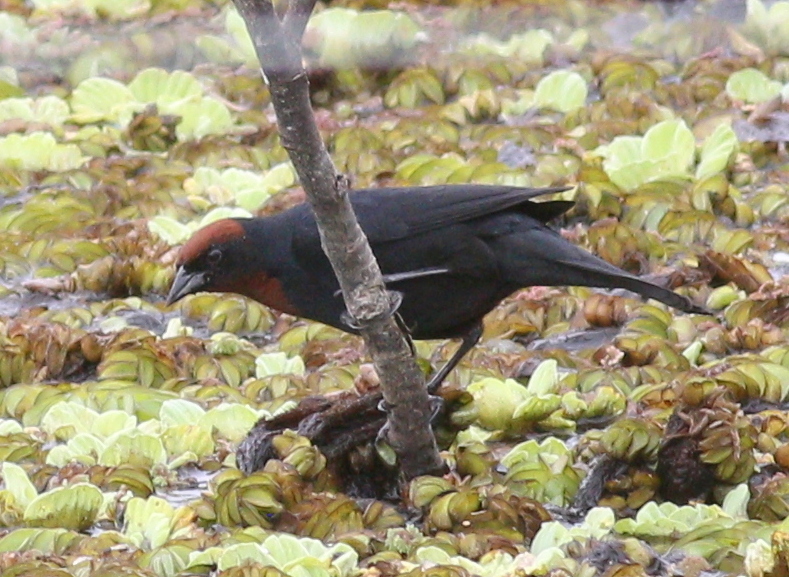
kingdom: Animalia
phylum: Chordata
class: Aves
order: Passeriformes
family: Icteridae
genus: Chrysomus
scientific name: Chrysomus ruficapillus
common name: Chestnut-capped blackbird
